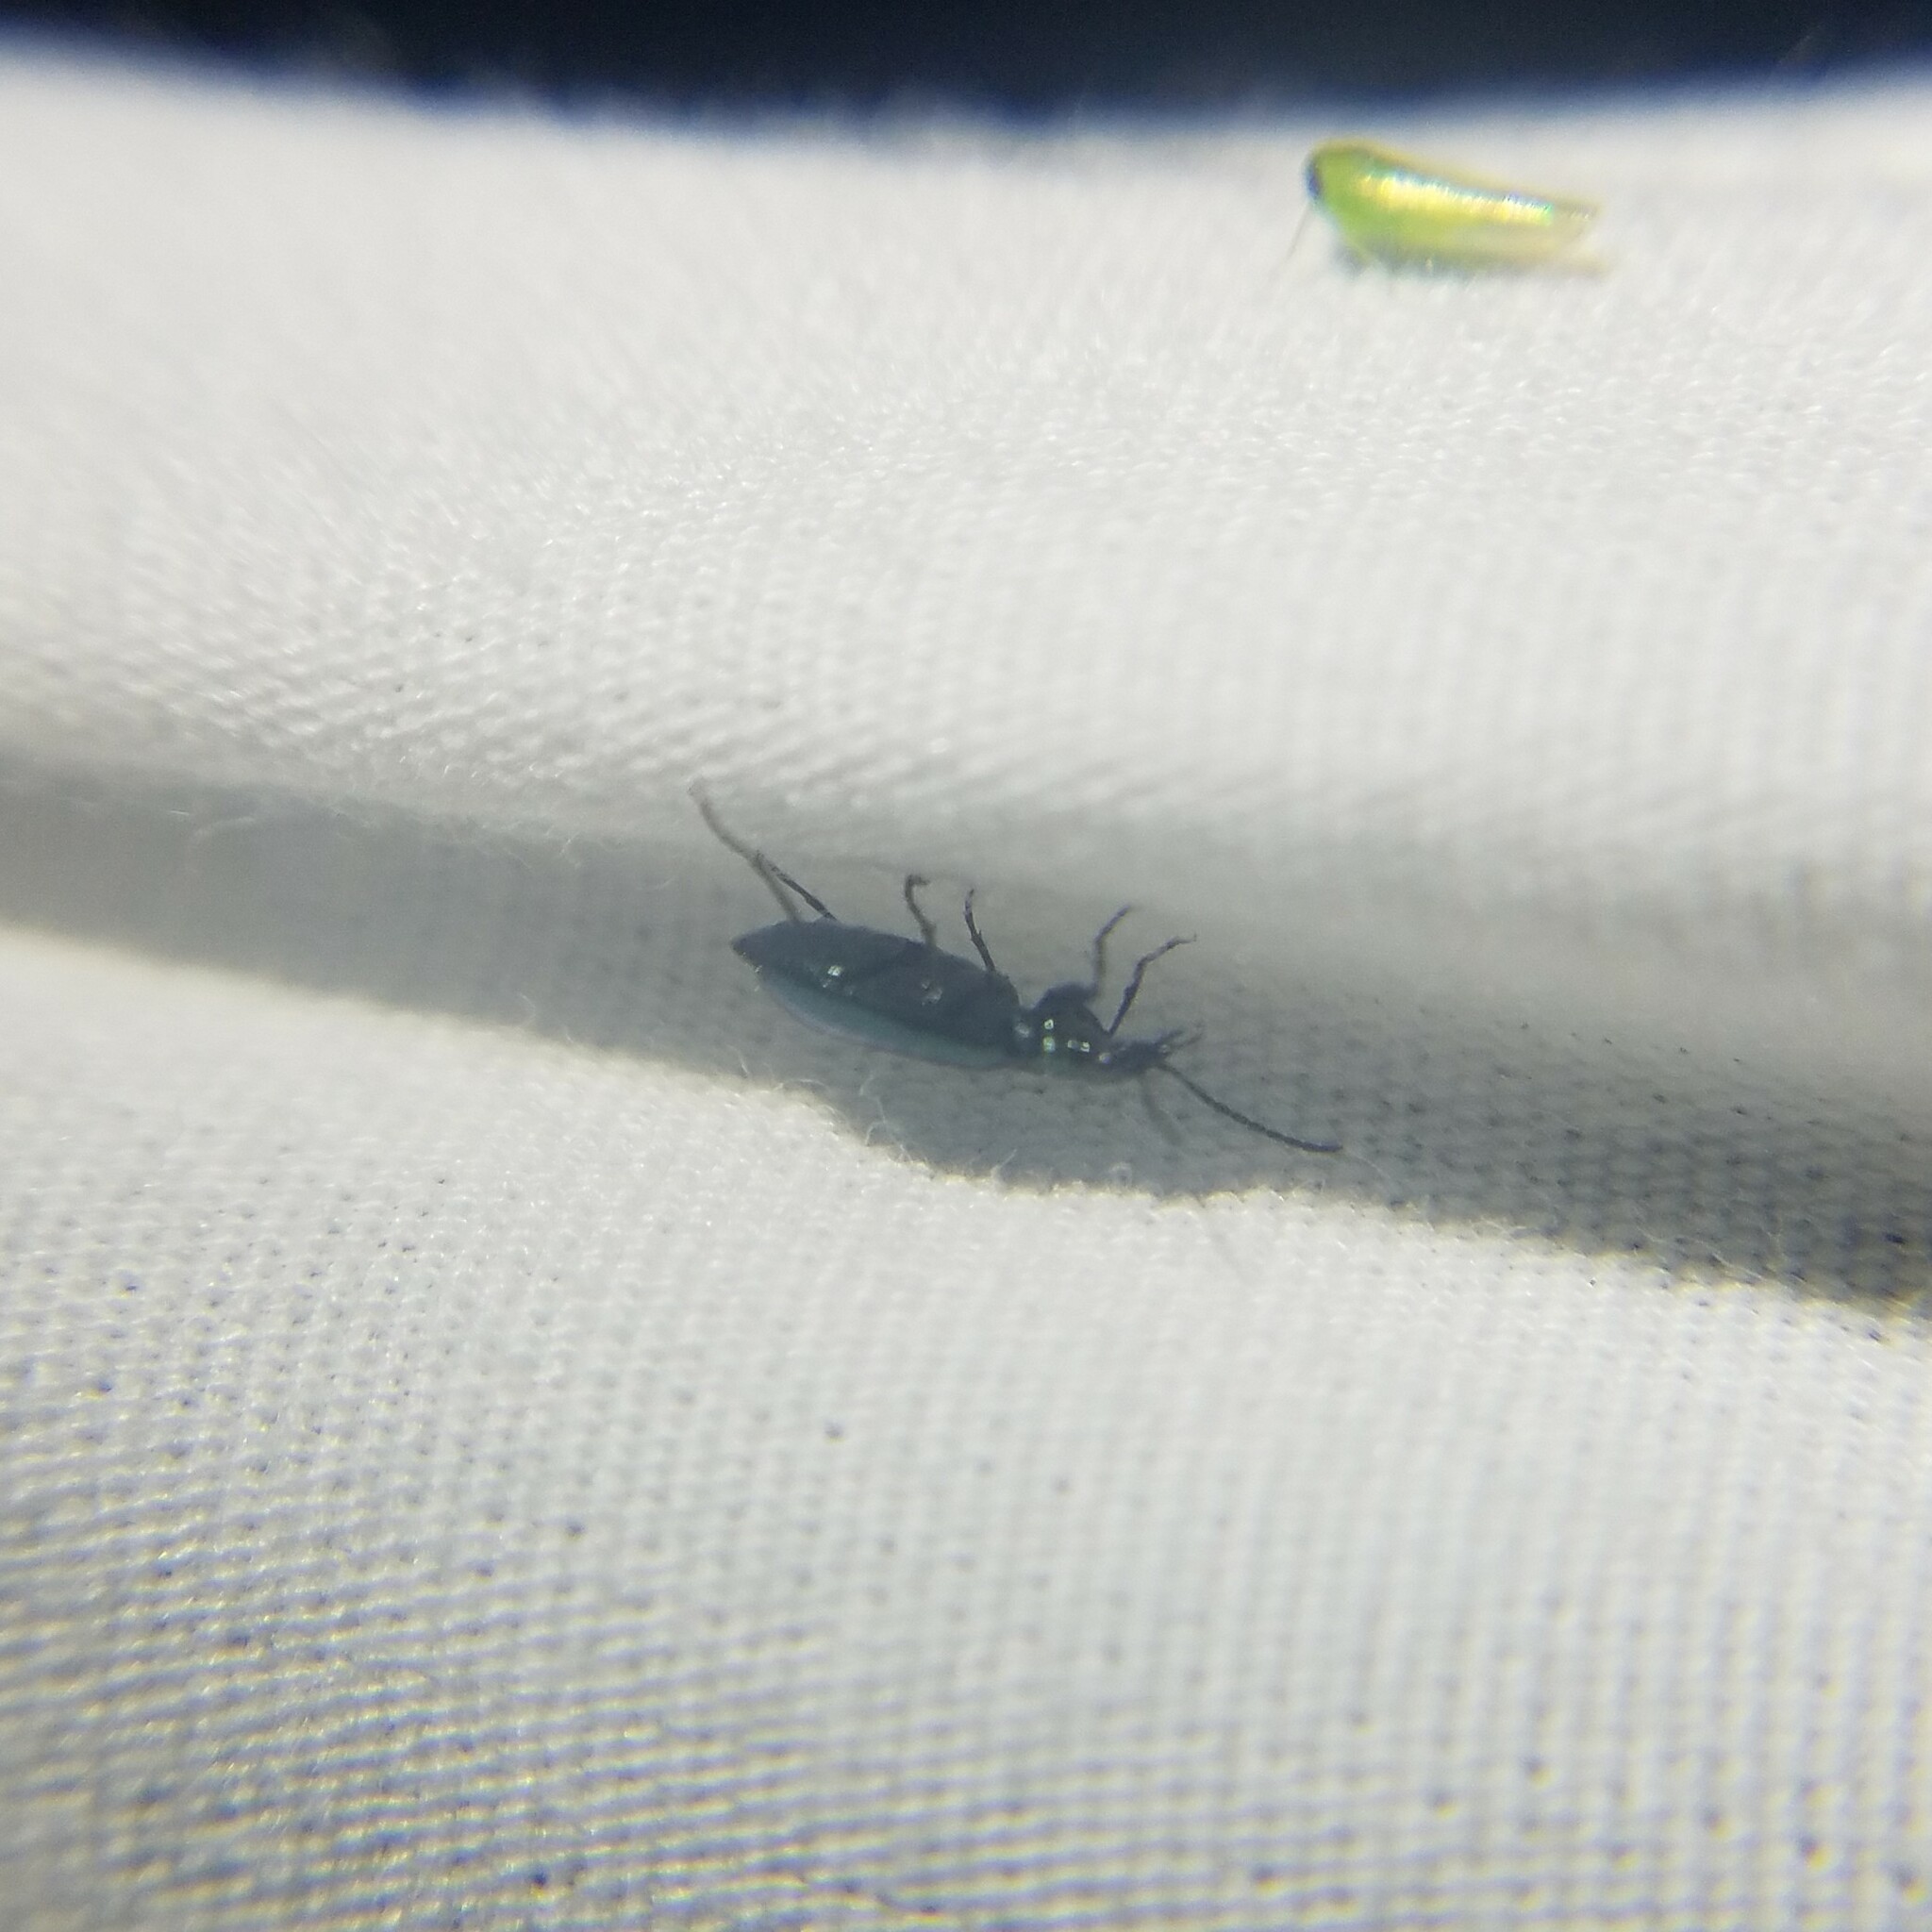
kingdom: Animalia
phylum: Arthropoda
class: Insecta
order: Coleoptera
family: Carabidae
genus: Lebia
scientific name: Lebia viridis
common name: Flower lebia beetle
